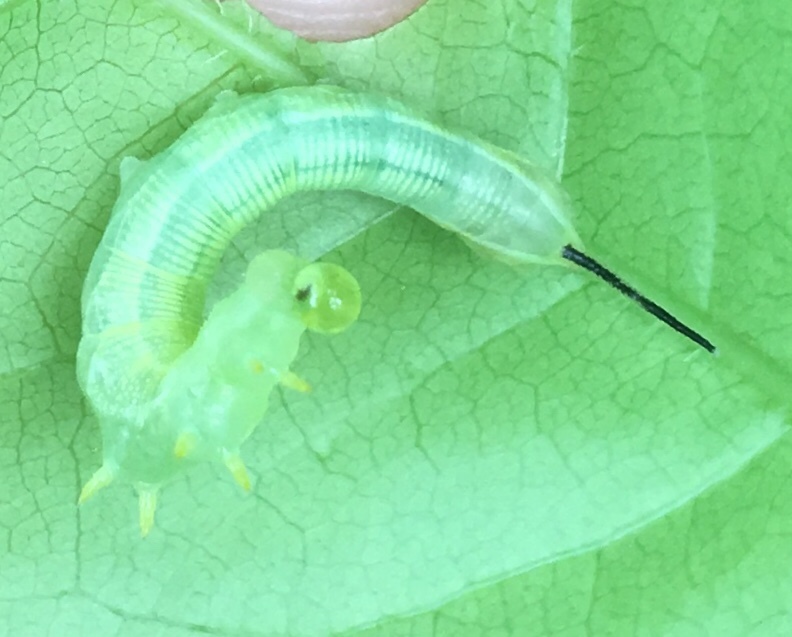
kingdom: Animalia
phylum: Arthropoda
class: Insecta
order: Lepidoptera
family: Sphingidae
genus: Deidamia
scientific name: Deidamia inscriptum
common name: Lettered sphinx
